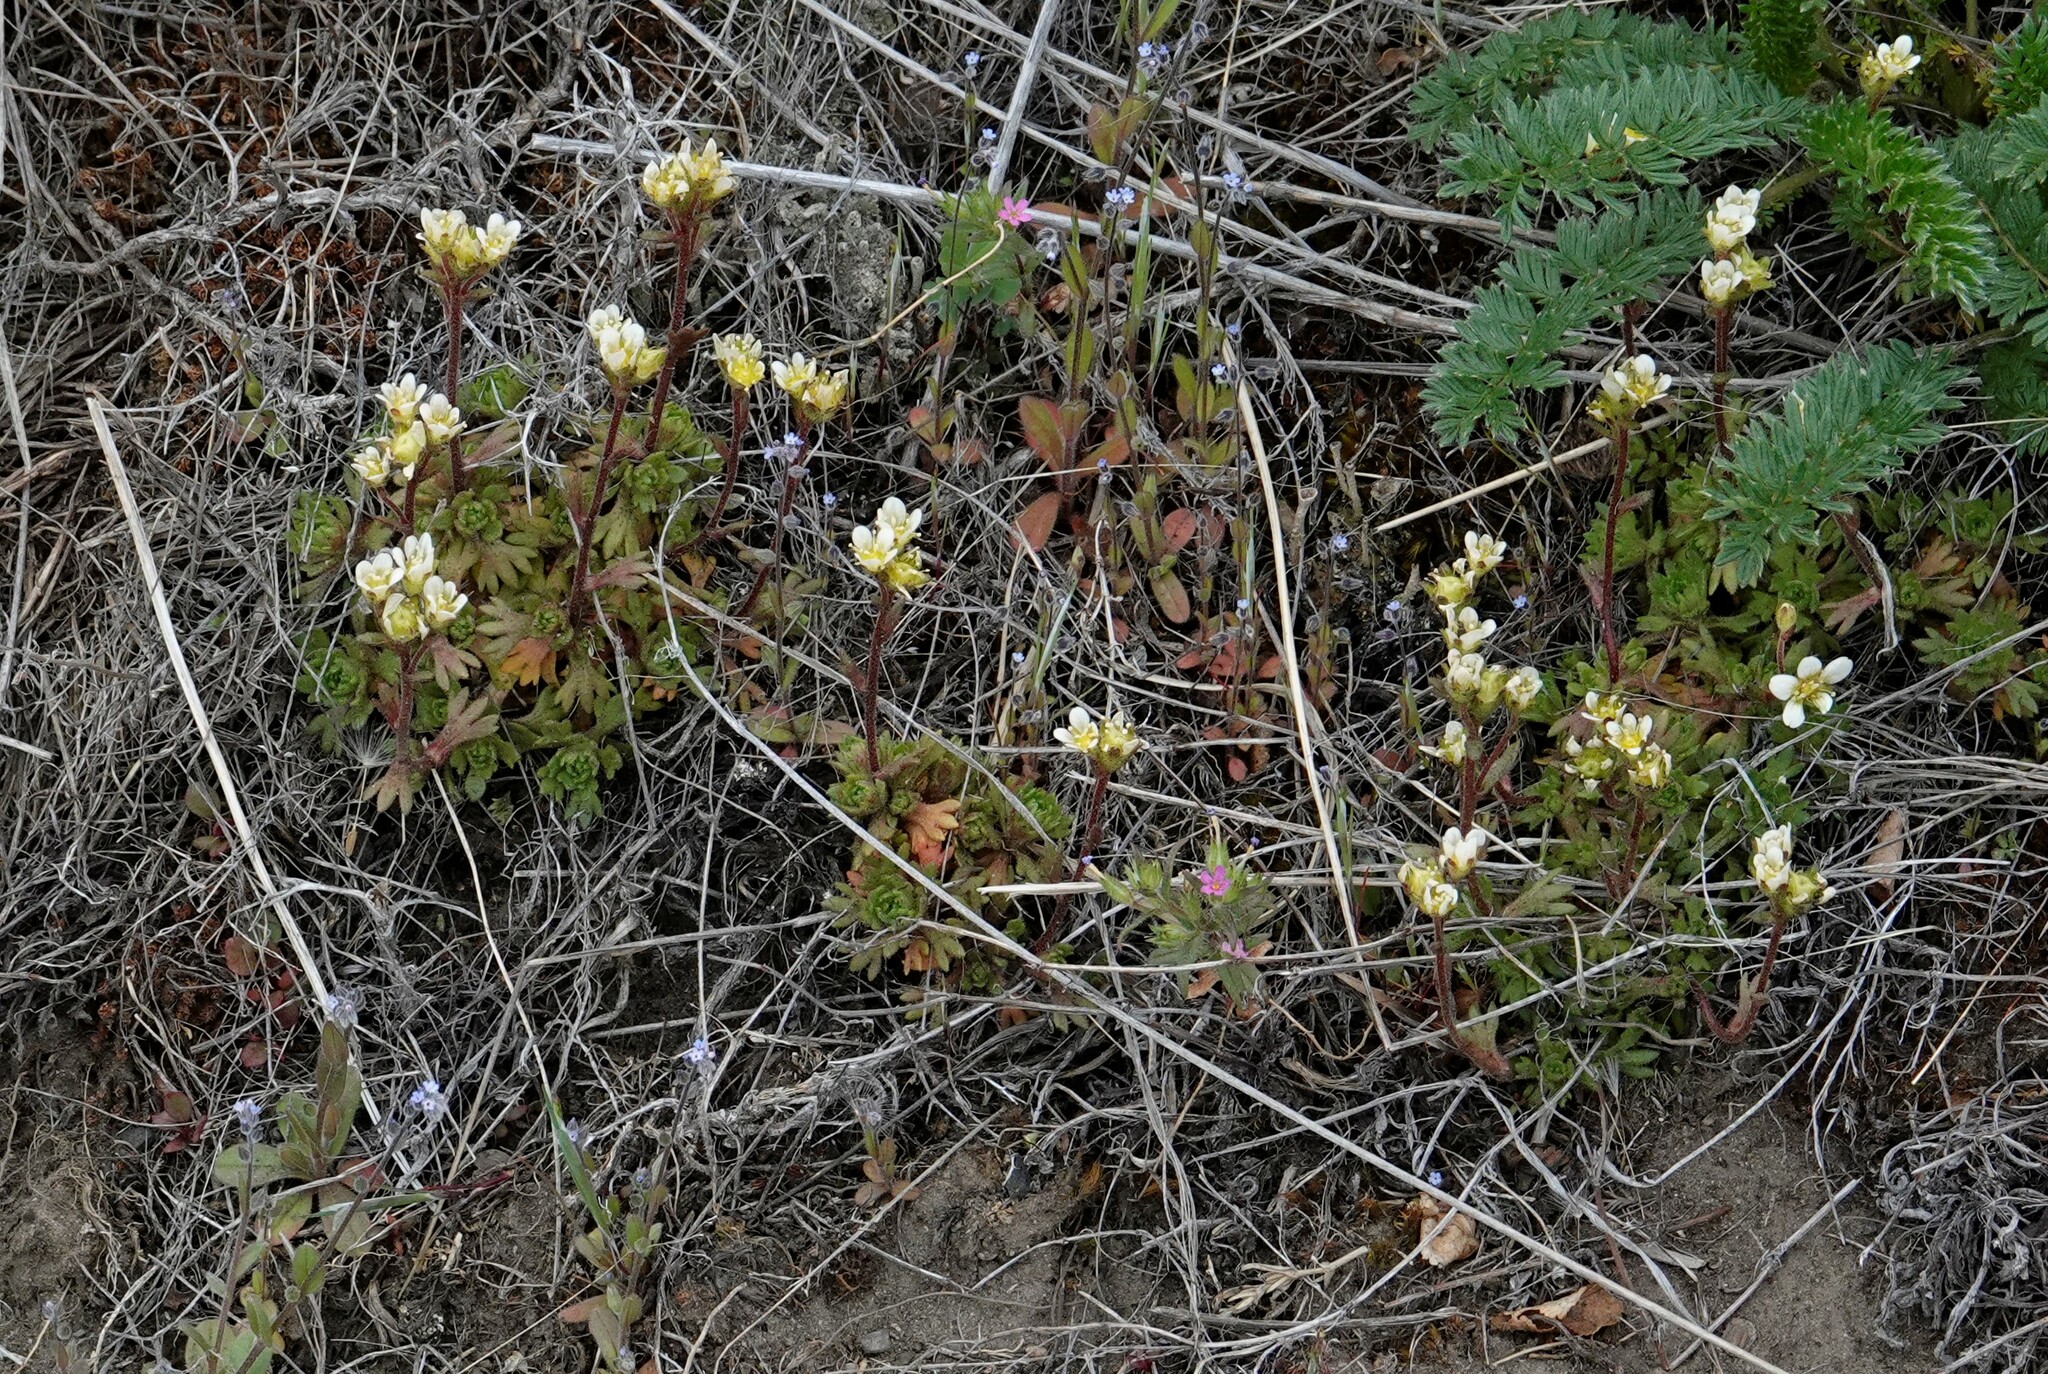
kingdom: Plantae
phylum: Tracheophyta
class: Magnoliopsida
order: Saxifragales
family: Saxifragaceae
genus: Saxifraga
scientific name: Saxifraga magellanica
